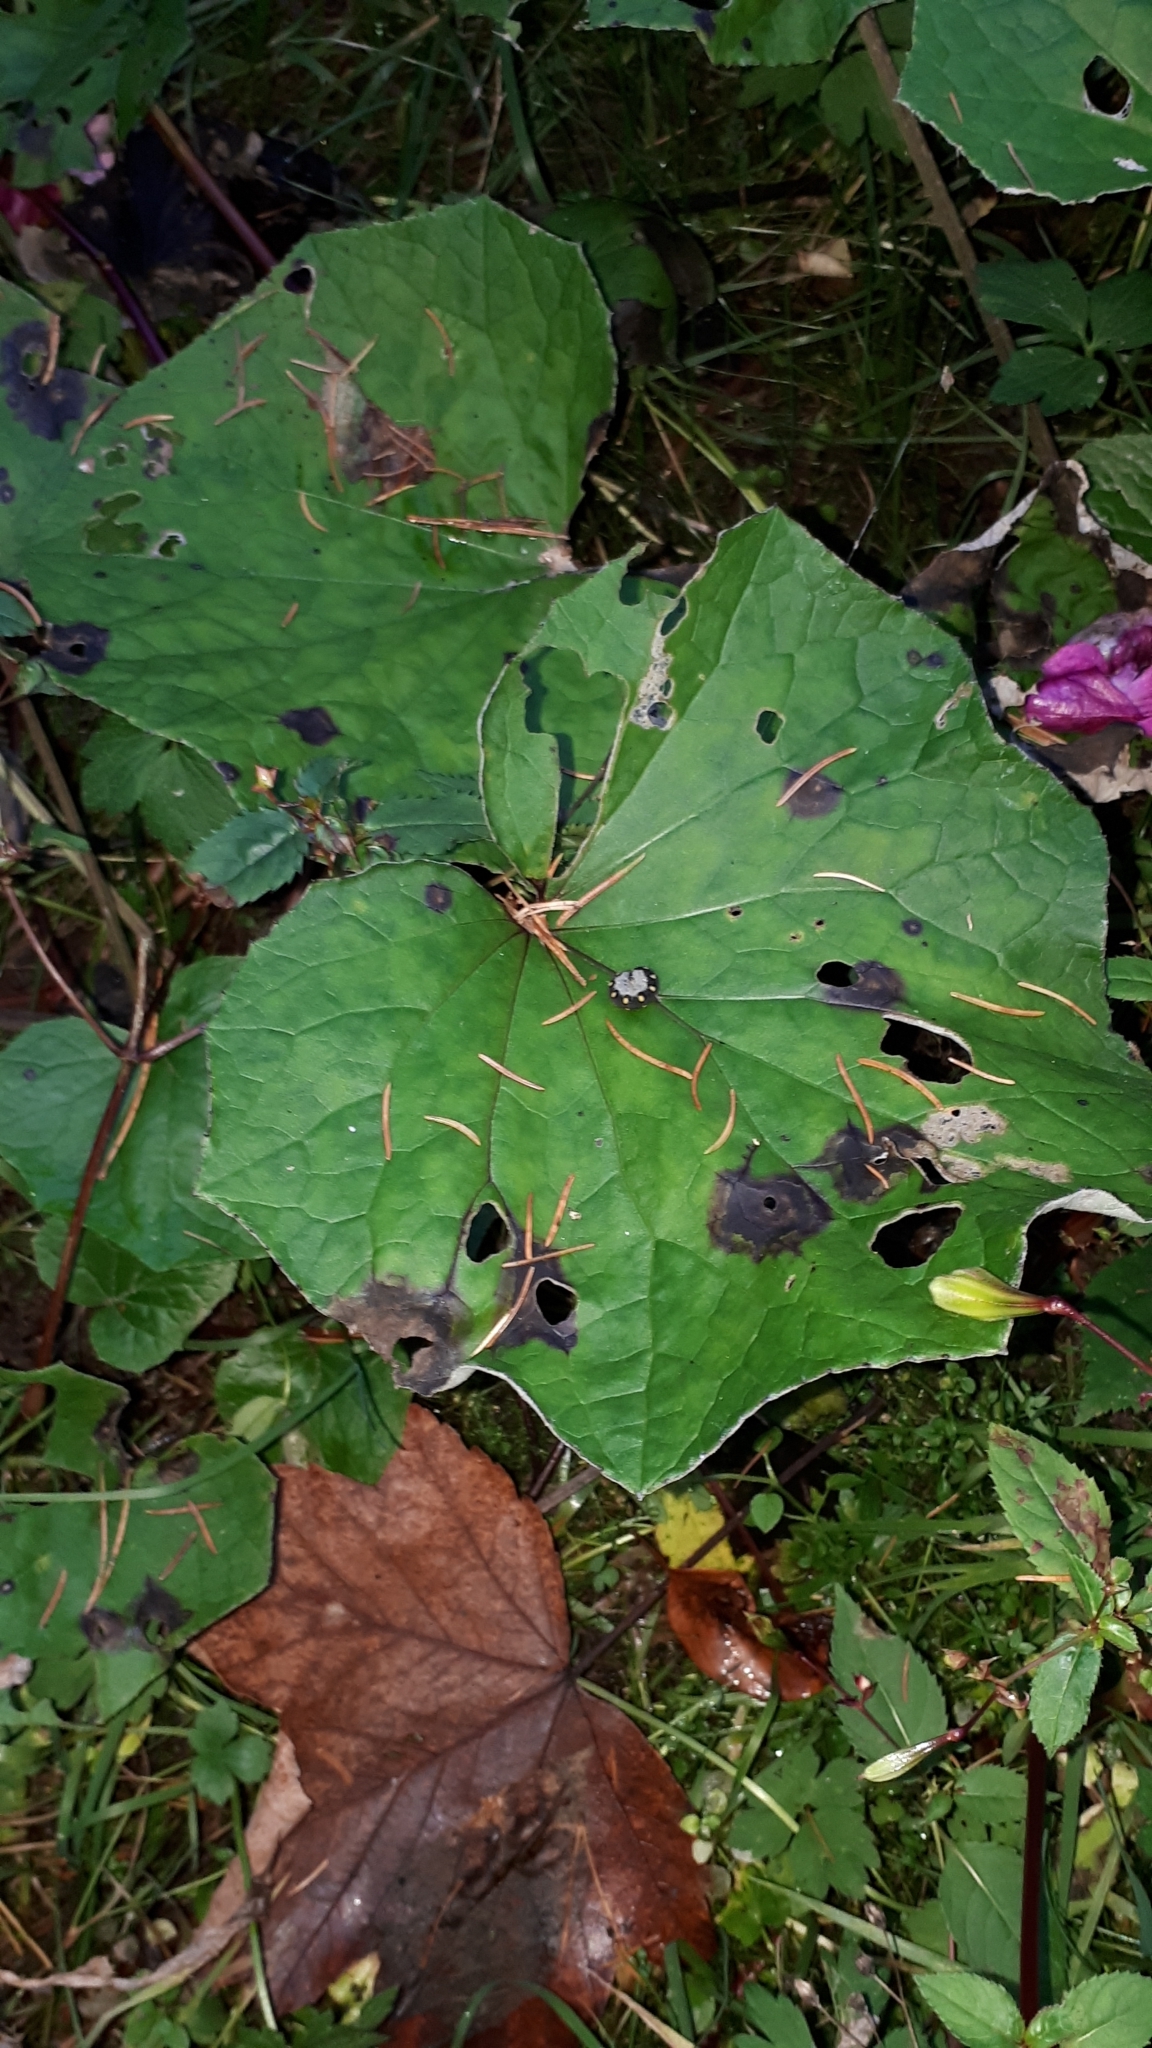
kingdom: Animalia
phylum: Arthropoda
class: Insecta
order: Hymenoptera
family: Tenthredinidae
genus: Tenthredo
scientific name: Tenthredo mandibularis
